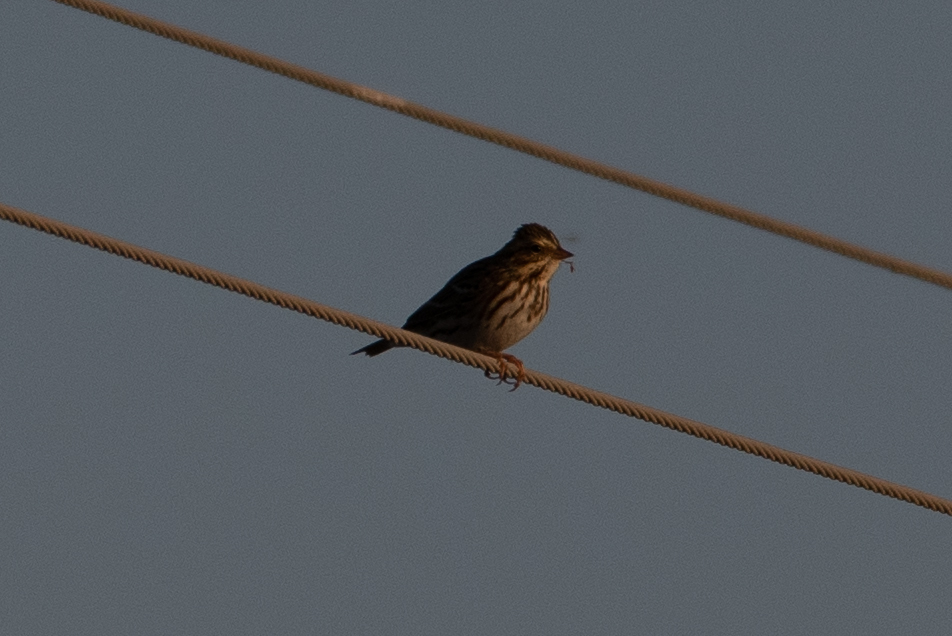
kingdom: Animalia
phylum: Chordata
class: Aves
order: Passeriformes
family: Passerellidae
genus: Passerculus
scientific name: Passerculus sandwichensis
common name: Savannah sparrow
